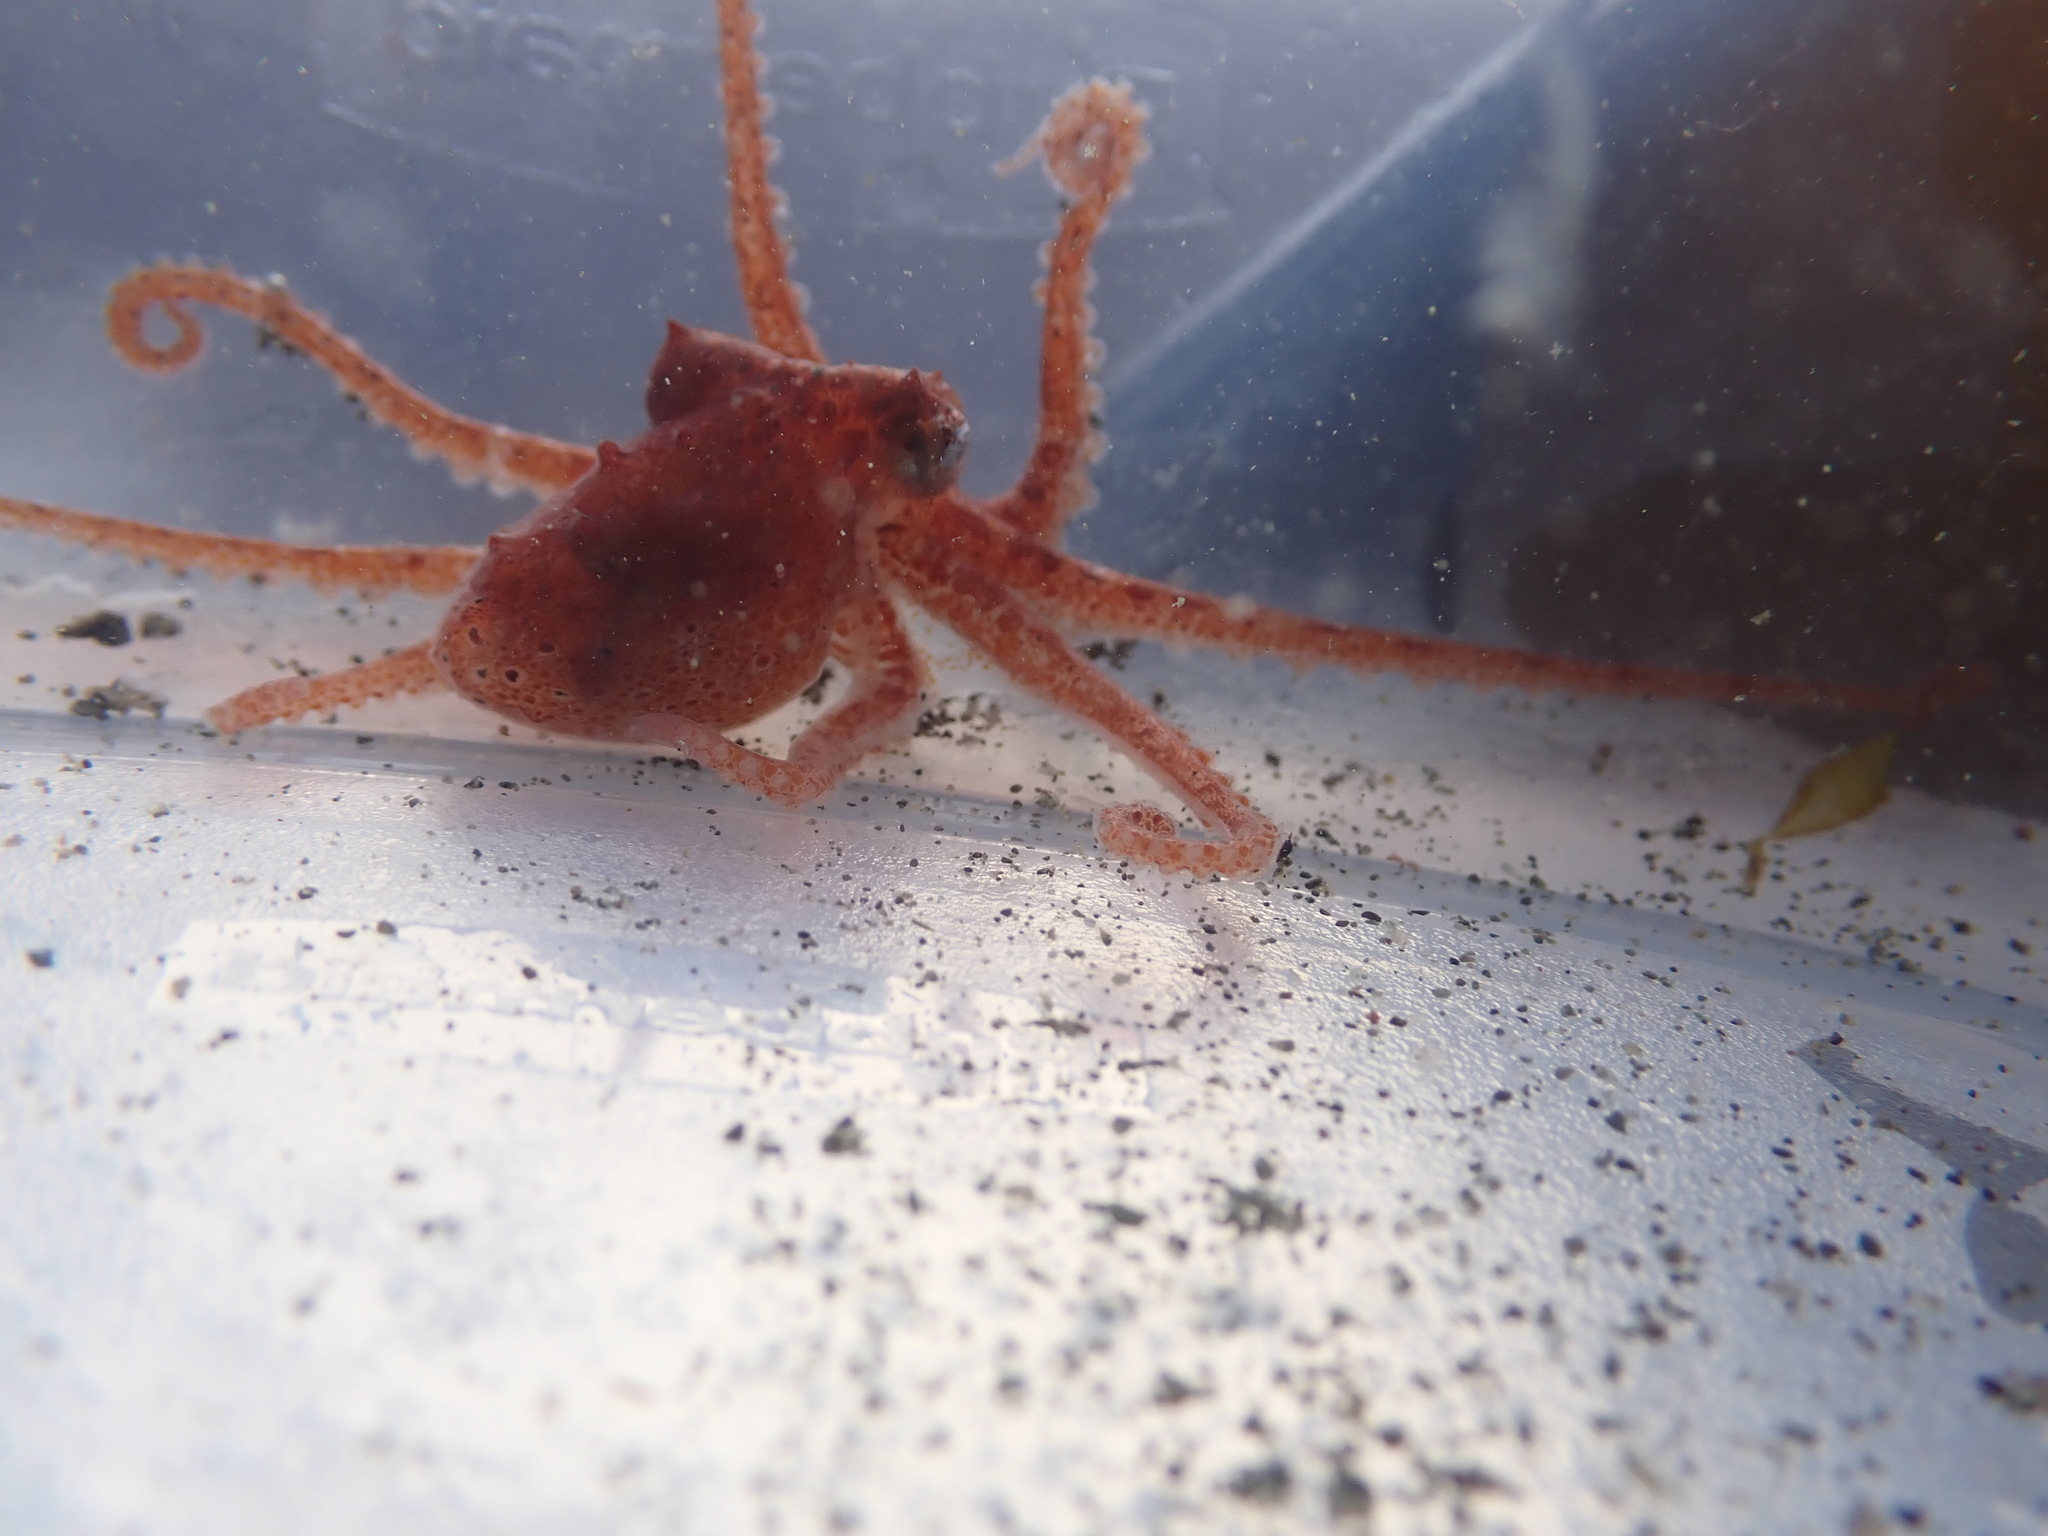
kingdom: Animalia
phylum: Mollusca
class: Cephalopoda
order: Octopoda
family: Enteroctopodidae
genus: Enteroctopus
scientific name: Enteroctopus dofleini
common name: Giant north pacific octopus
